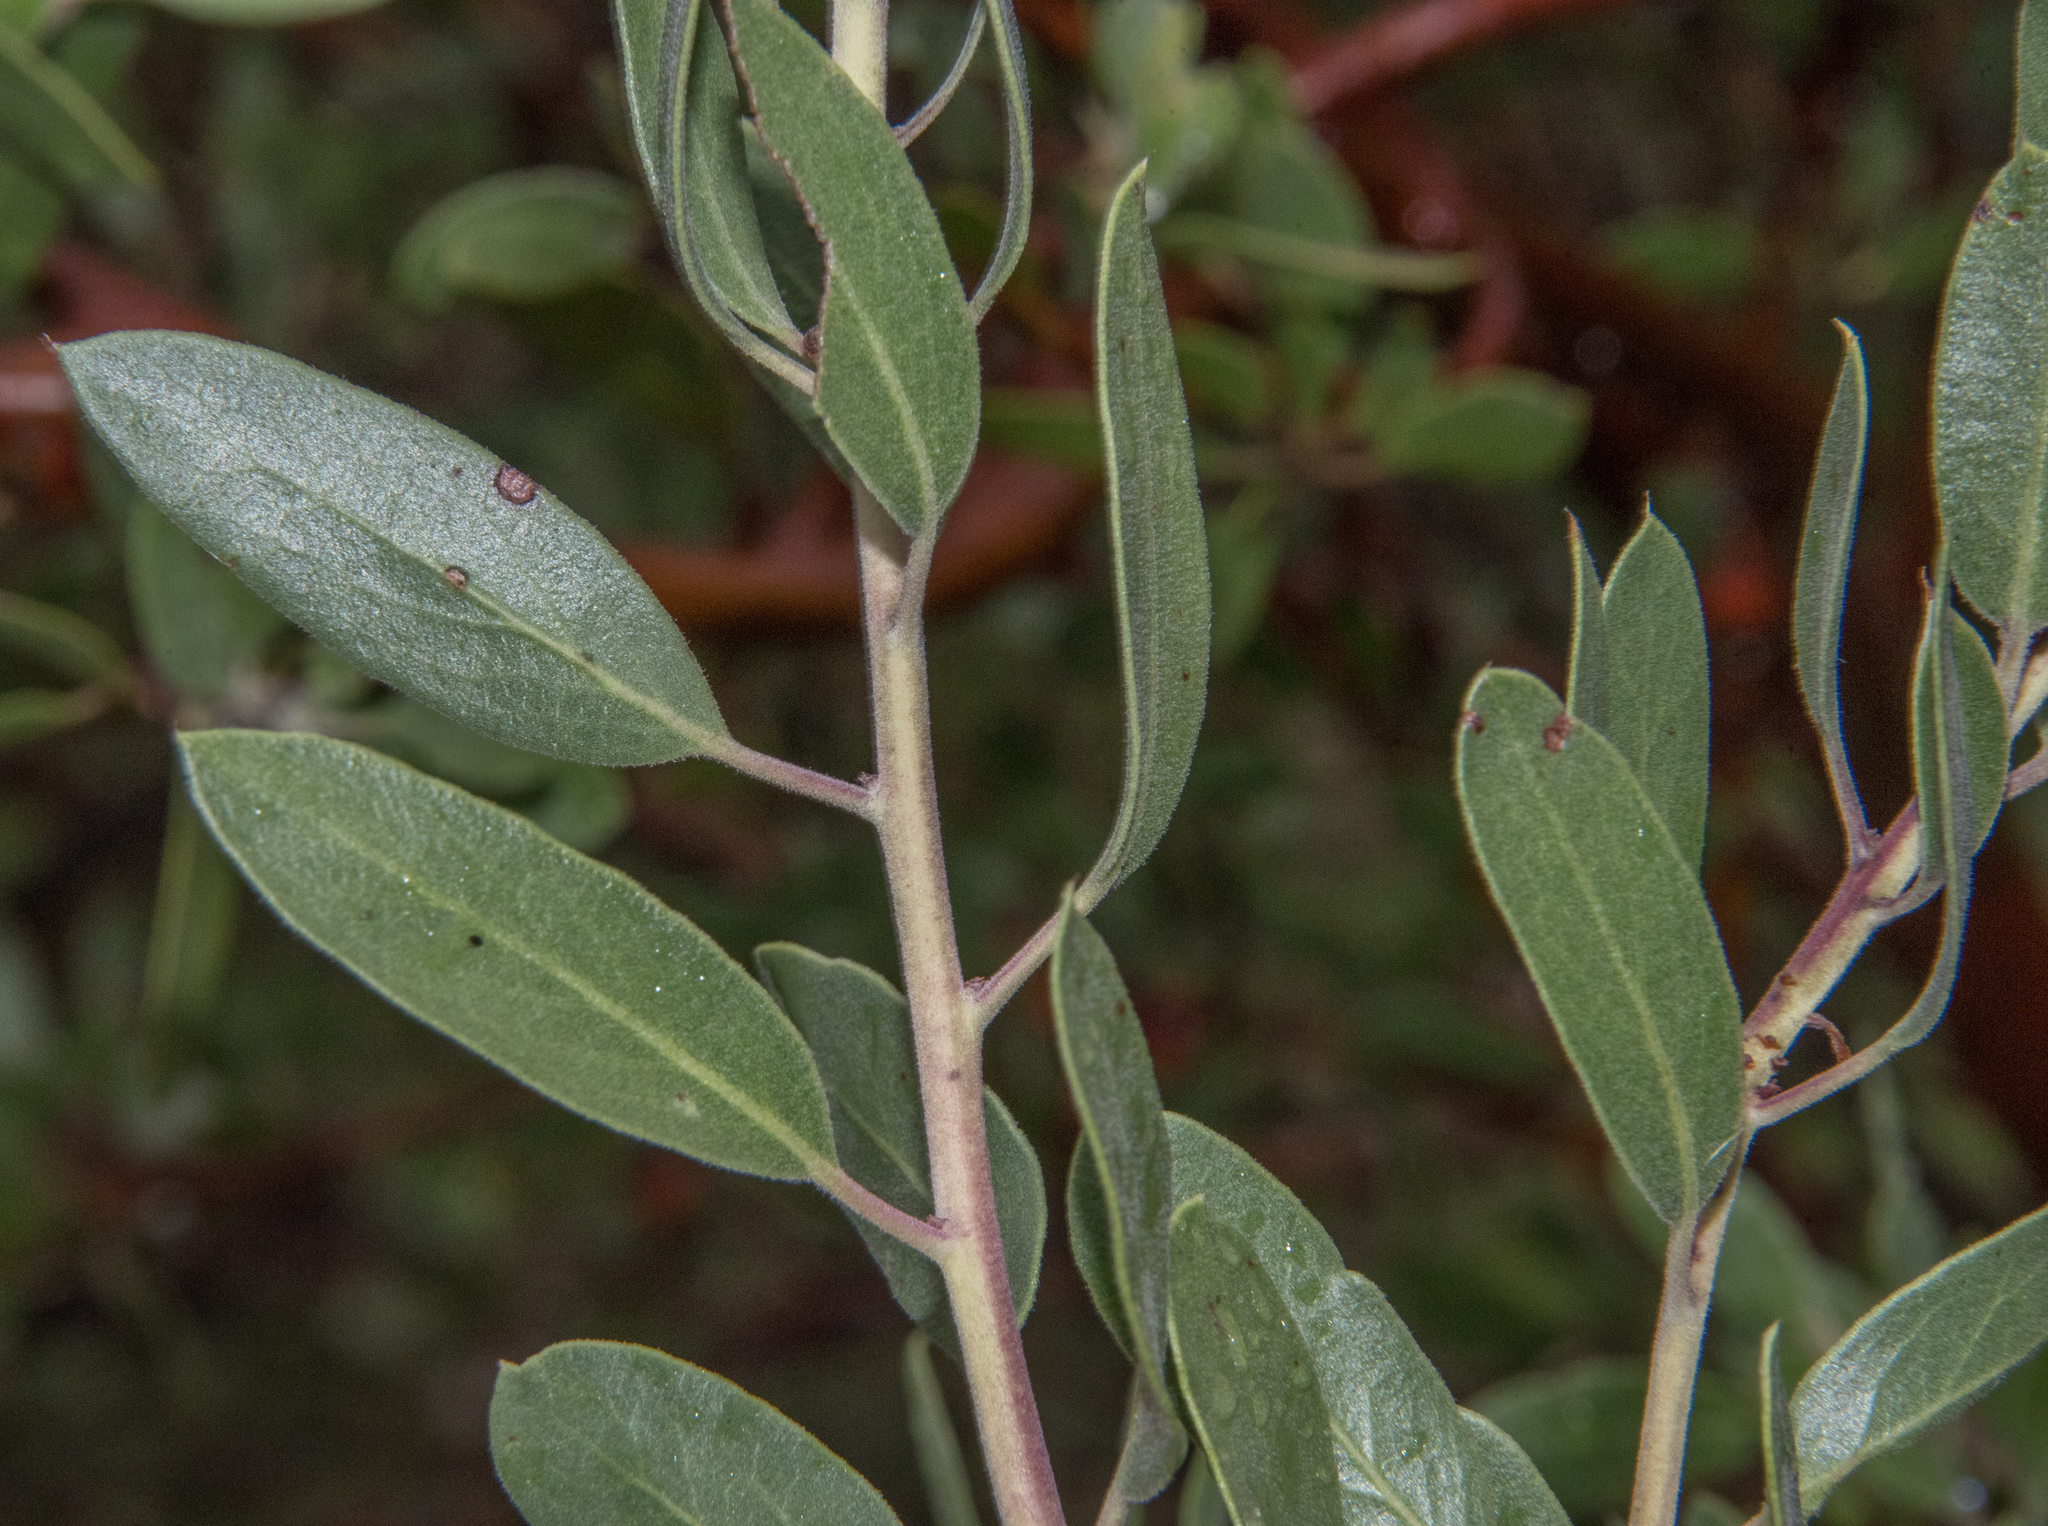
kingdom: Plantae
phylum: Tracheophyta
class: Magnoliopsida
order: Ericales
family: Ericaceae
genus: Arctostaphylos
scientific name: Arctostaphylos pungens
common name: Mexican manzanita
